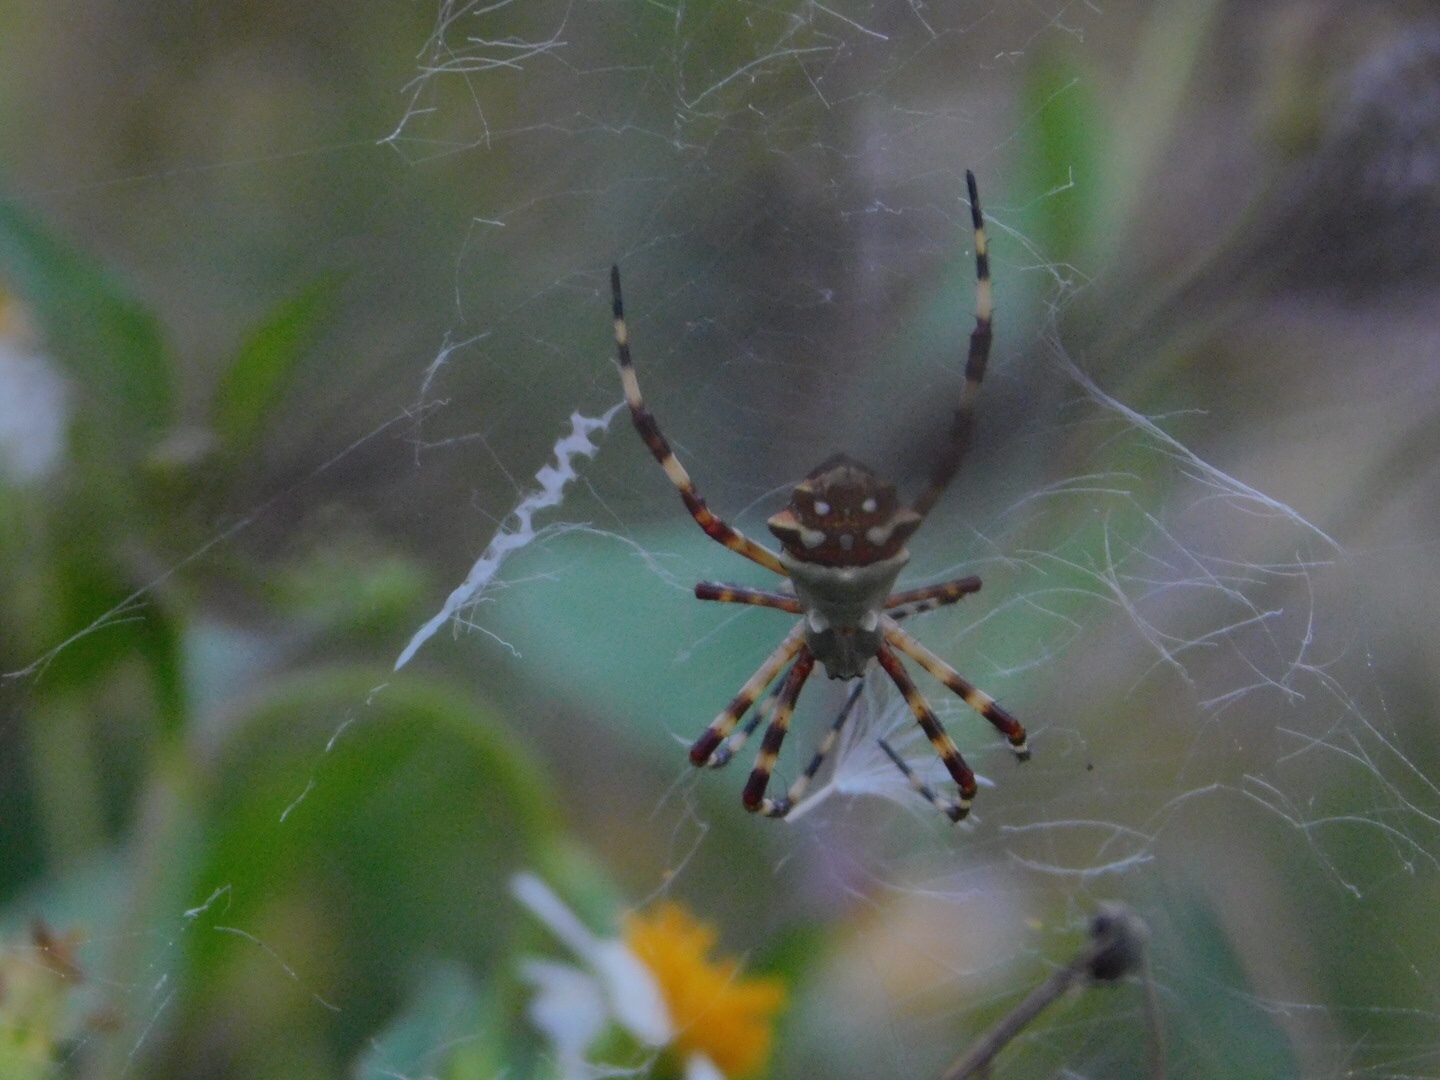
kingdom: Animalia
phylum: Arthropoda
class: Arachnida
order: Araneae
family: Araneidae
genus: Argiope
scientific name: Argiope argentata
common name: Orb weavers
